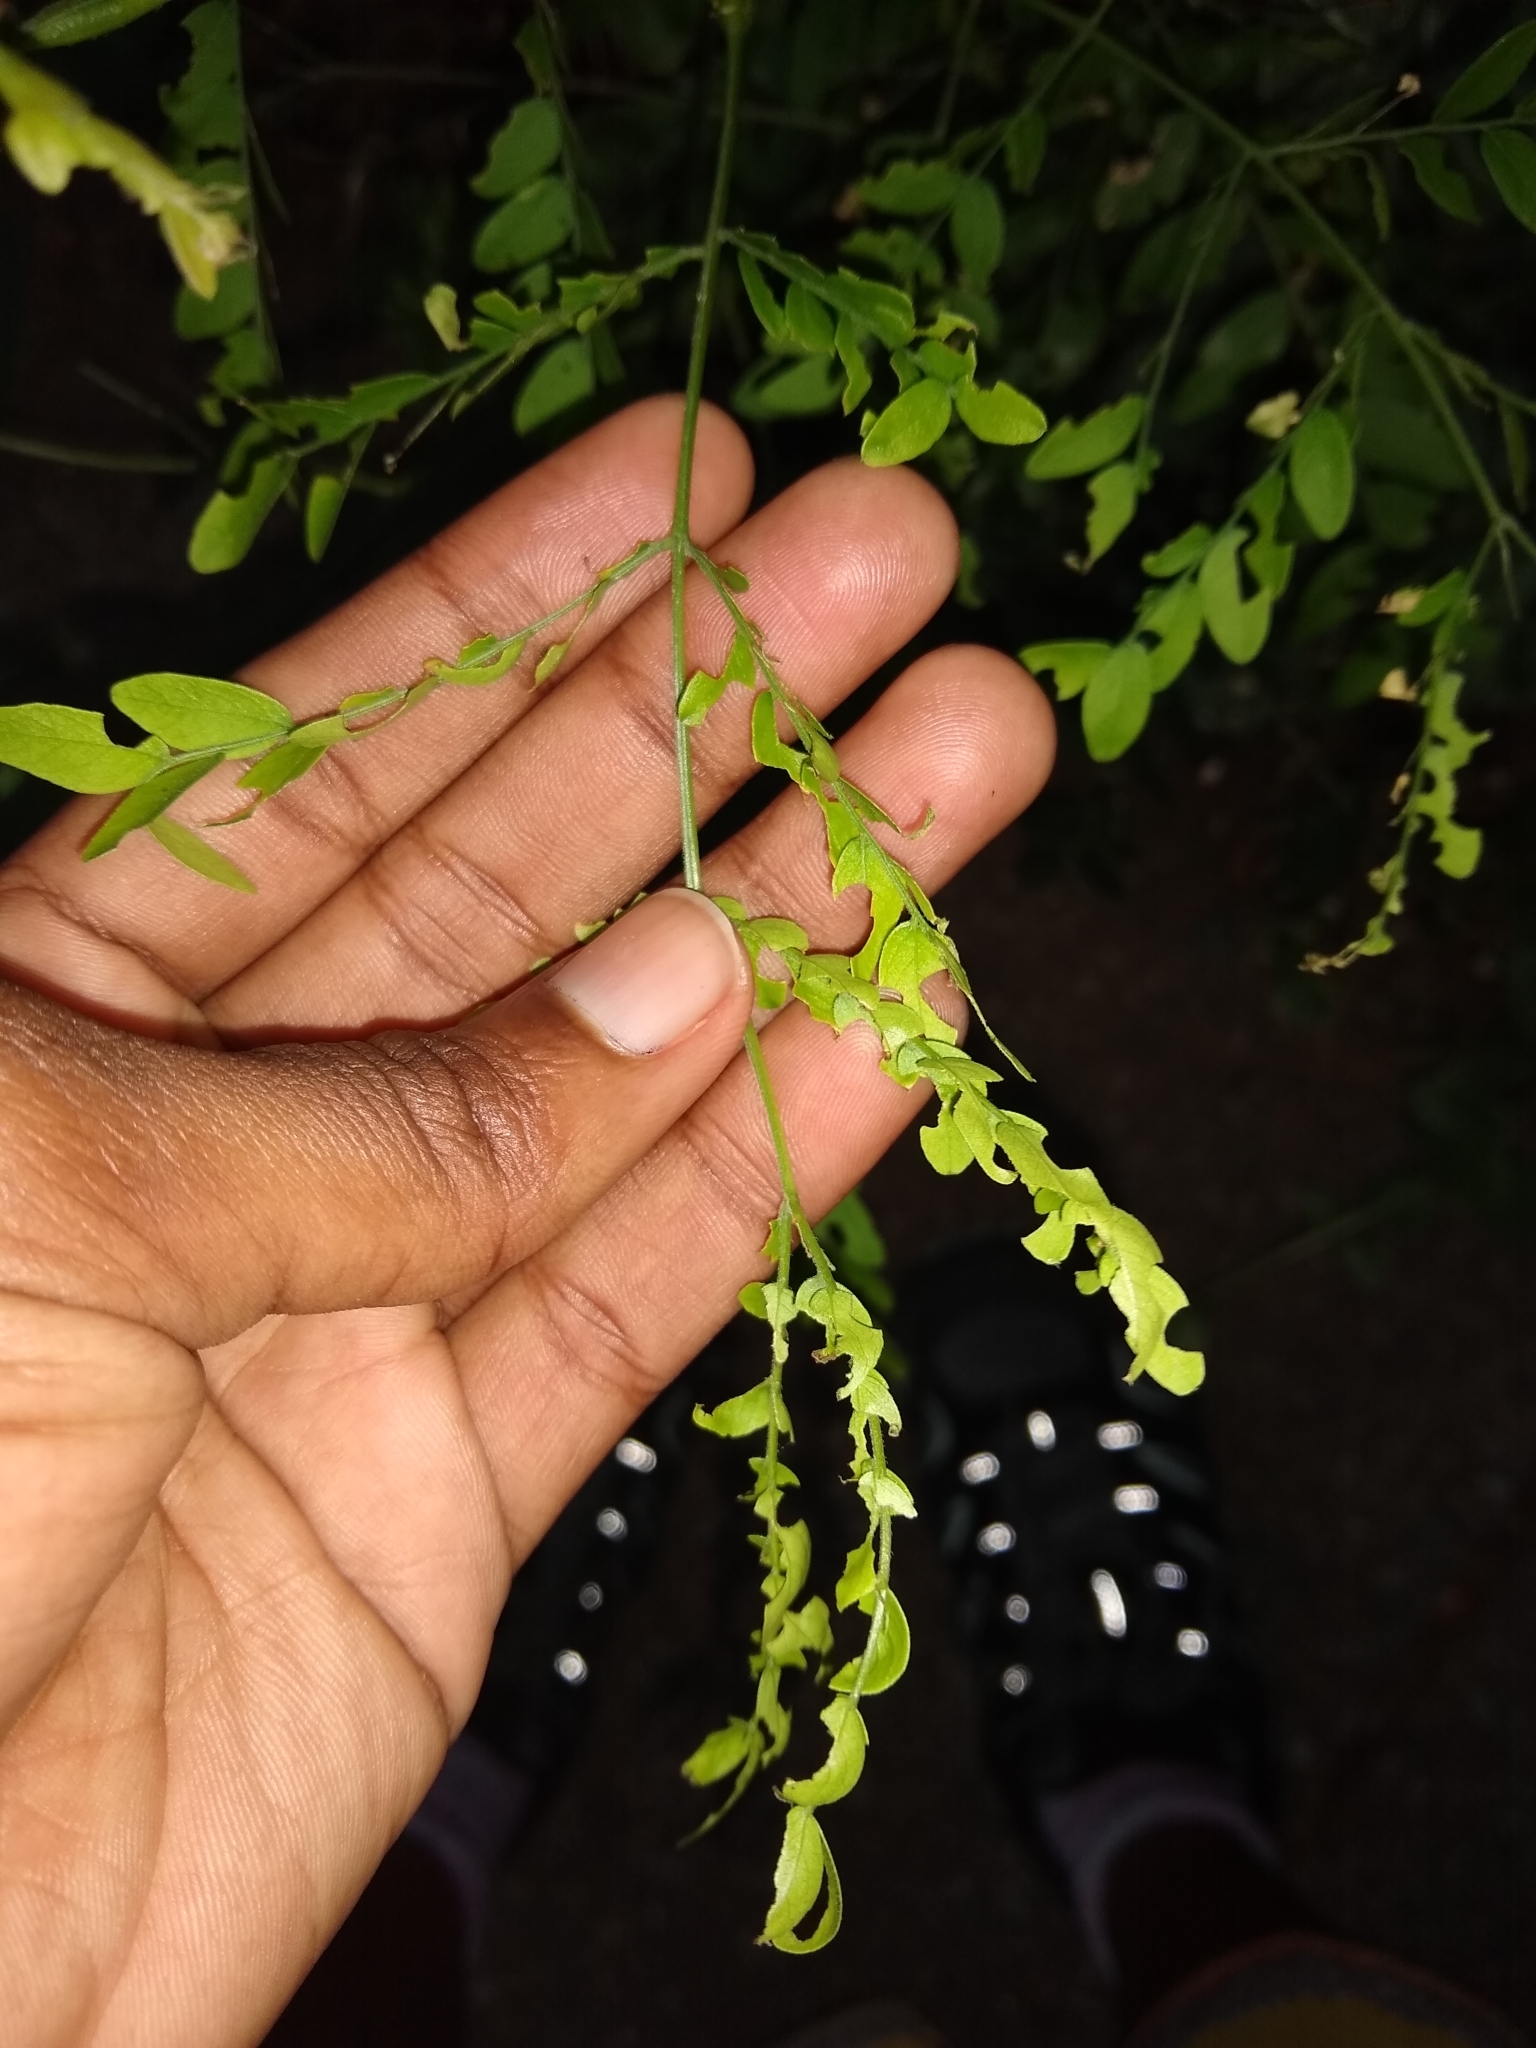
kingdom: Animalia
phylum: Arthropoda
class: Insecta
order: Coleoptera
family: Curculionidae
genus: Pseudocneorhinus
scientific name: Pseudocneorhinus bifasciatus
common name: Two-banded japanese weevil
